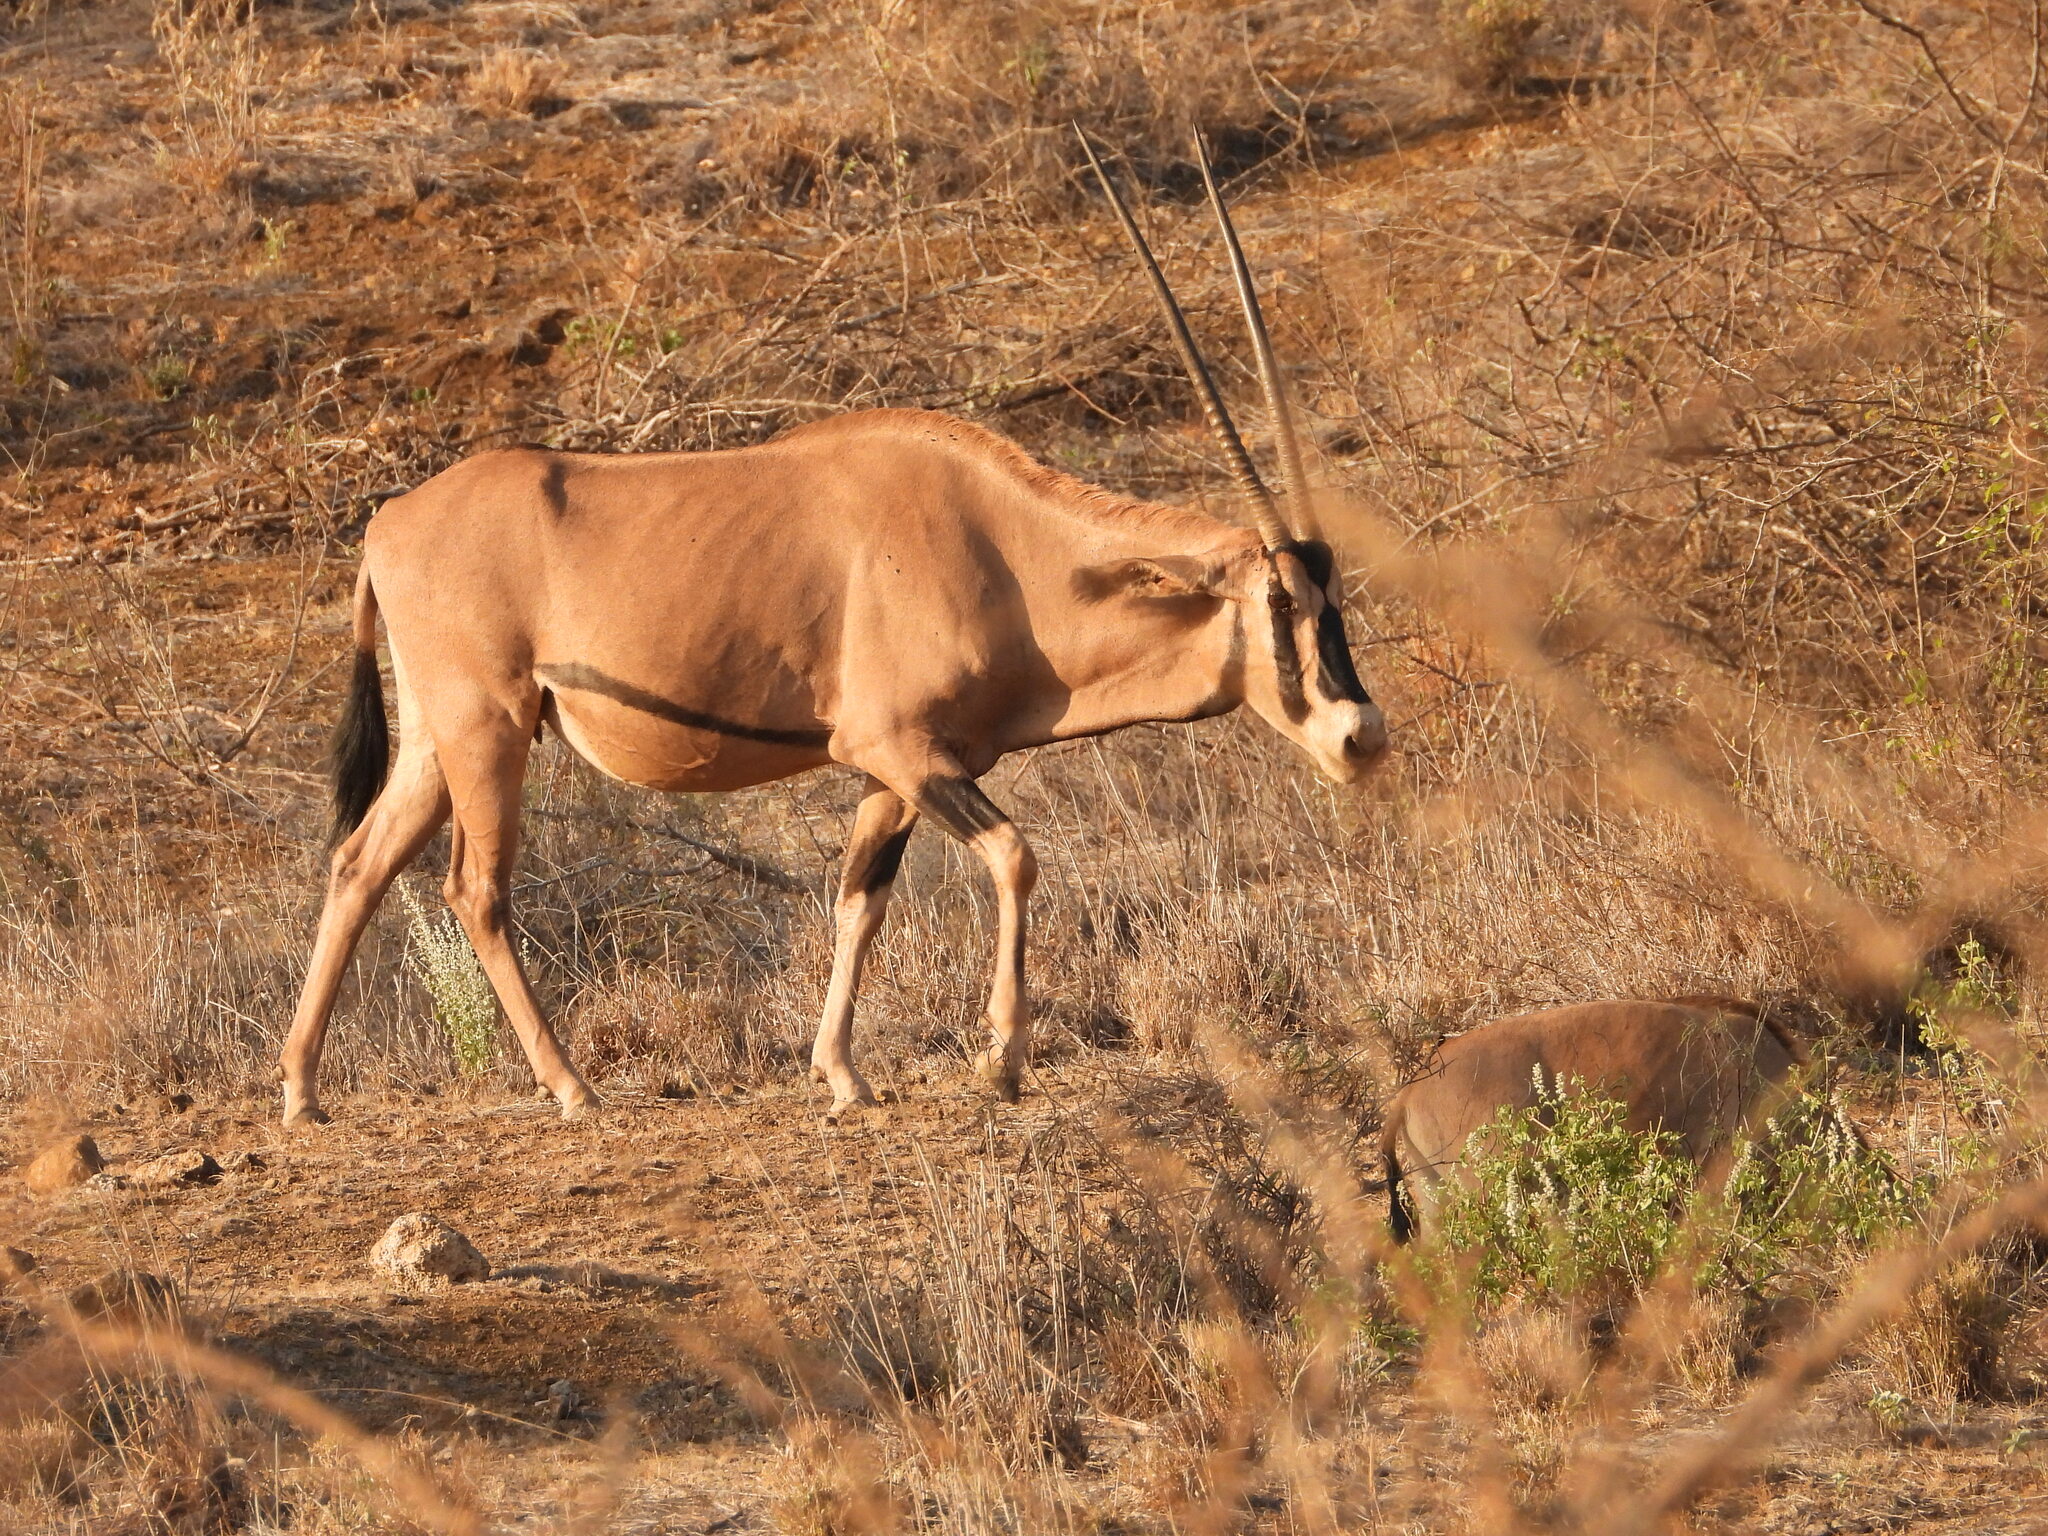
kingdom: Animalia
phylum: Chordata
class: Mammalia
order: Artiodactyla
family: Bovidae
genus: Oryx
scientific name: Oryx beisa
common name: Beisa
